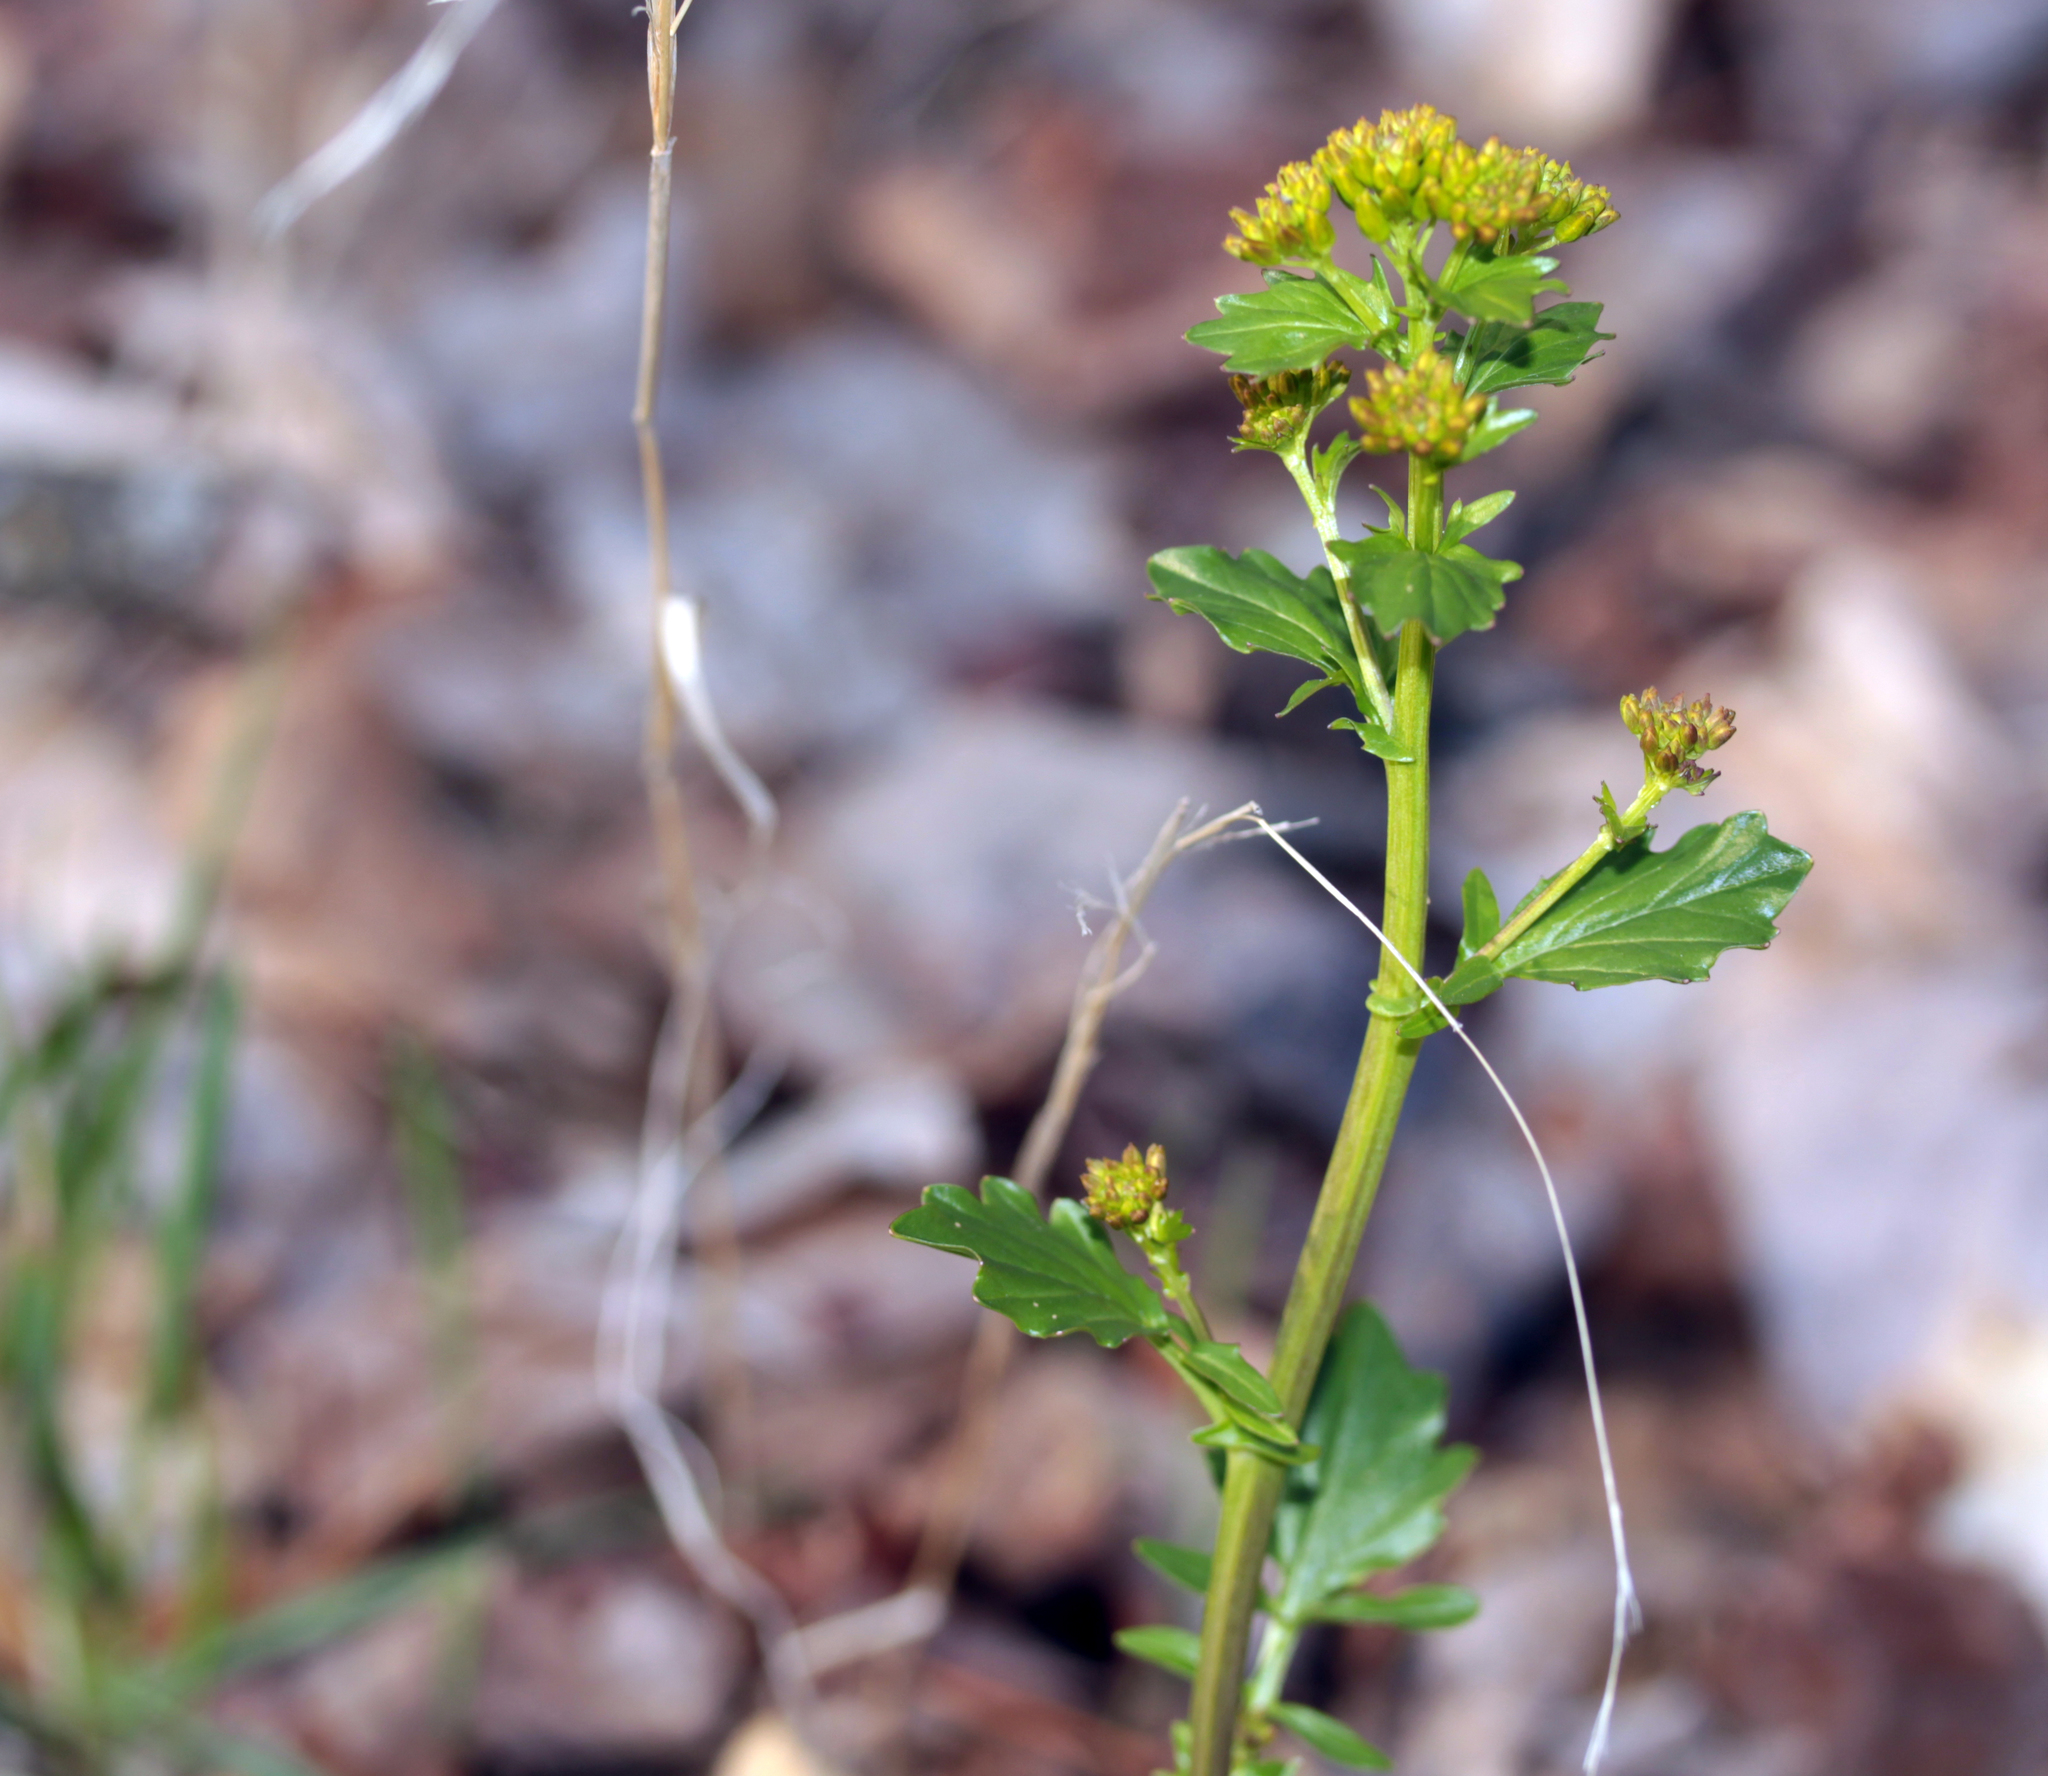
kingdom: Plantae
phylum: Tracheophyta
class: Magnoliopsida
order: Brassicales
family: Brassicaceae
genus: Barbarea
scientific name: Barbarea vulgaris
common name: Cressy-greens
